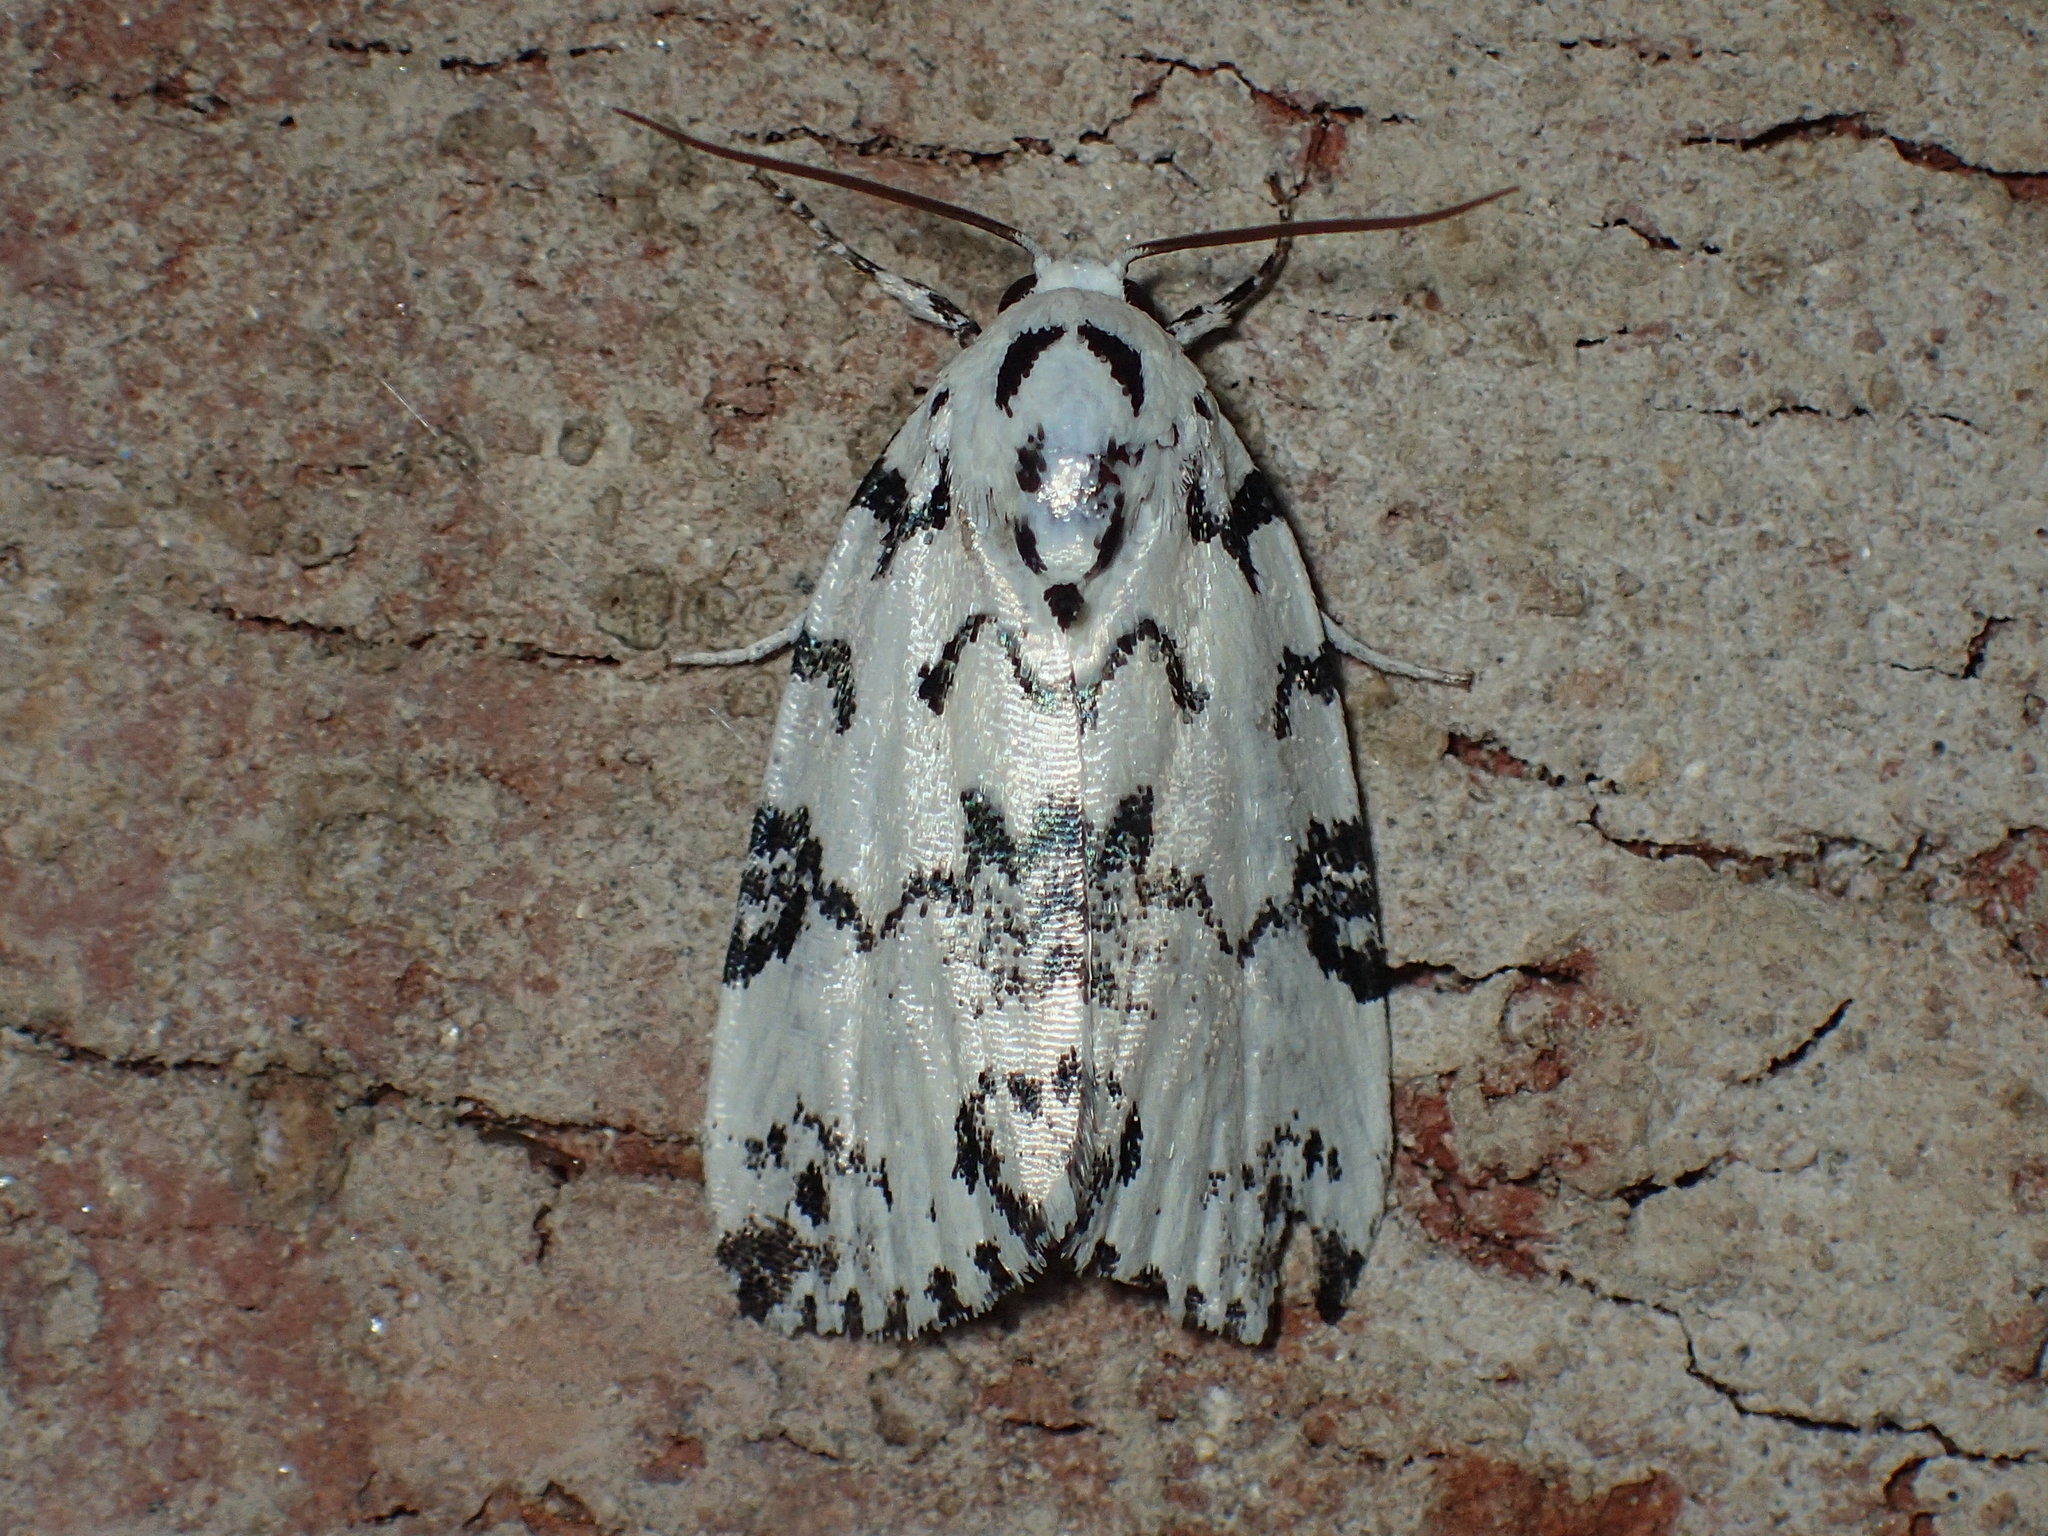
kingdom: Animalia
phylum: Arthropoda
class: Insecta
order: Lepidoptera
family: Noctuidae
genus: Polygrammate
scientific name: Polygrammate hebraeicum
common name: Hebrew moth
